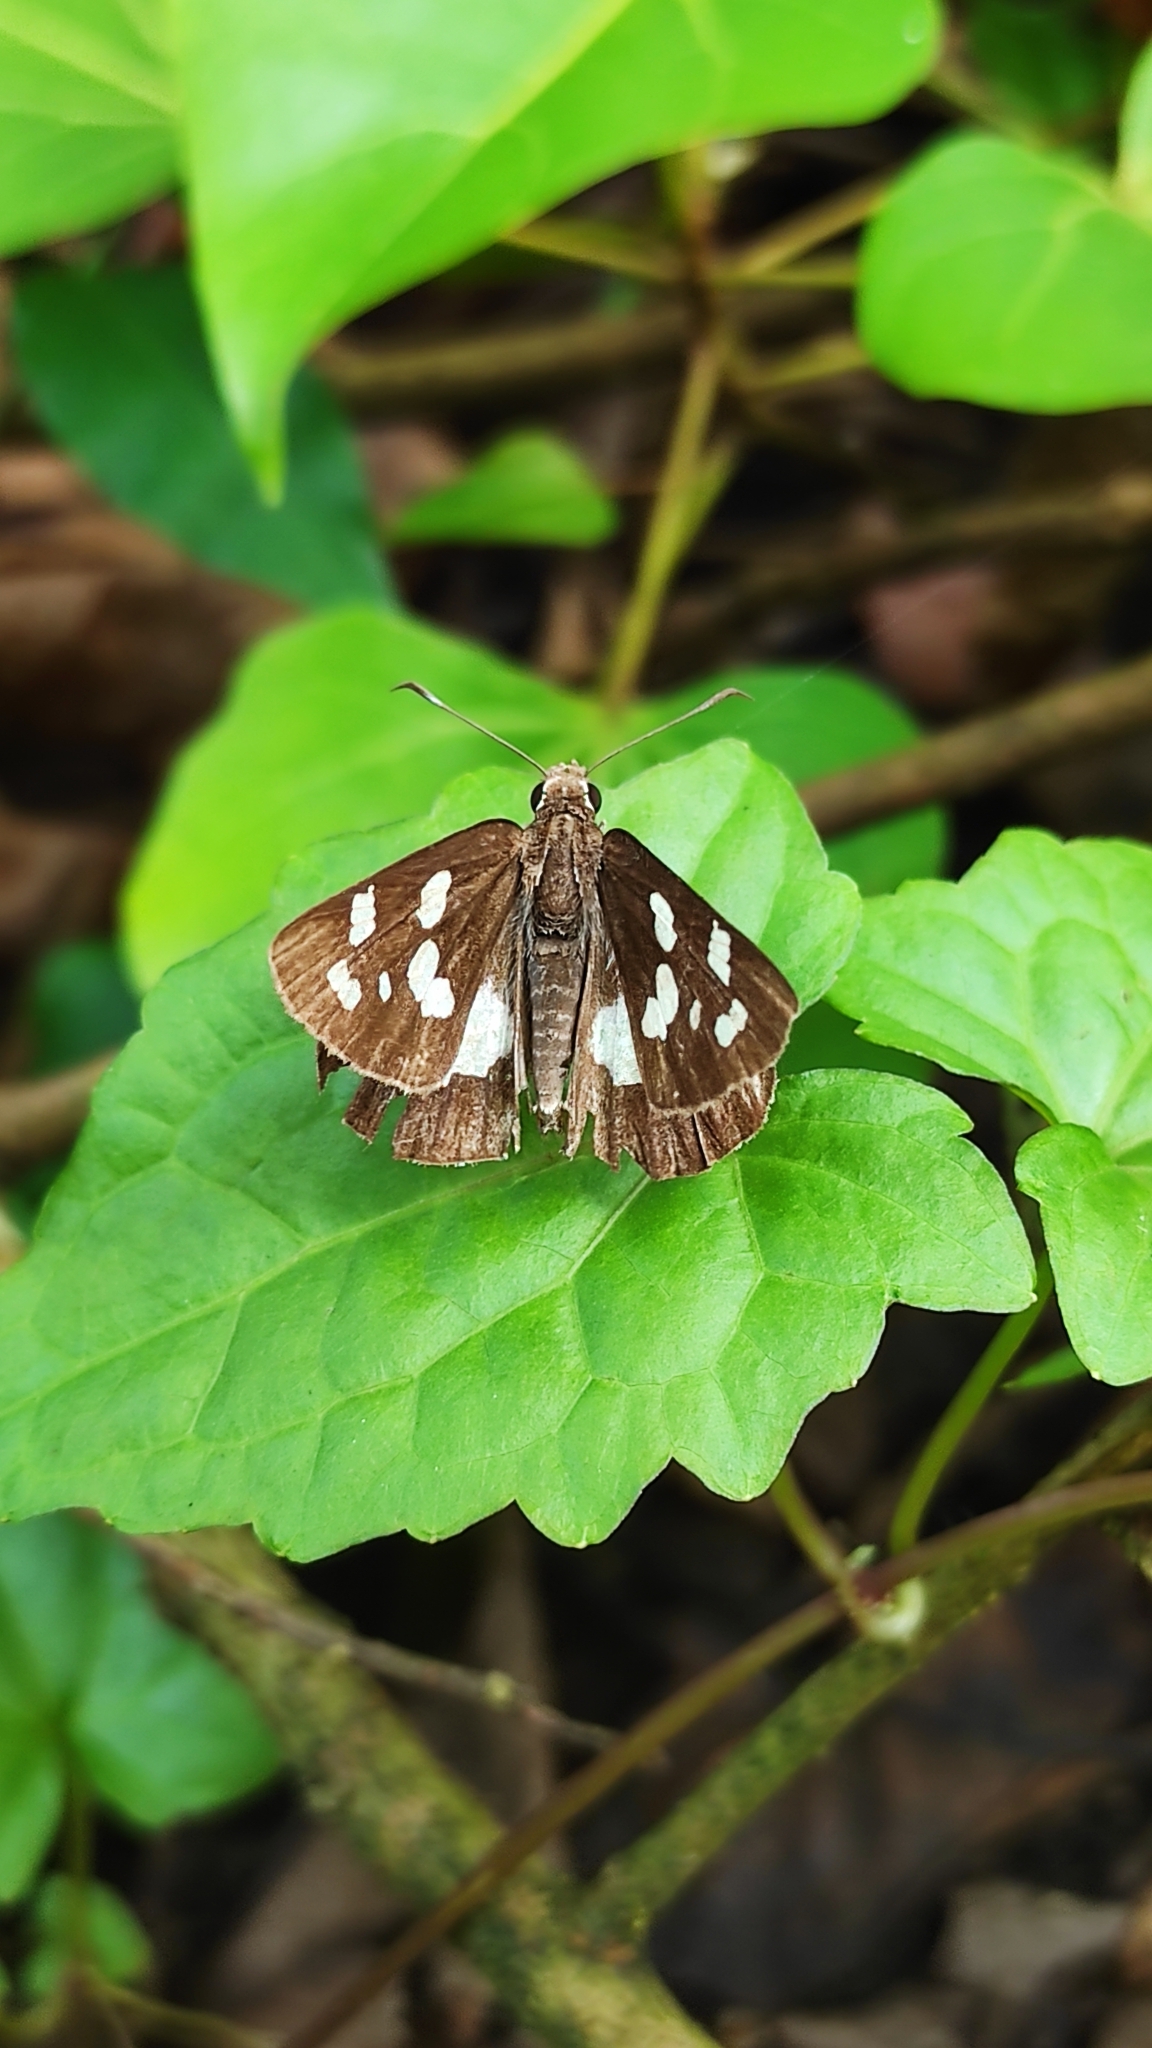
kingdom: Animalia
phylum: Arthropoda
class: Insecta
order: Lepidoptera
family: Hesperiidae
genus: Udaspes
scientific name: Udaspes folus
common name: Grass demon
